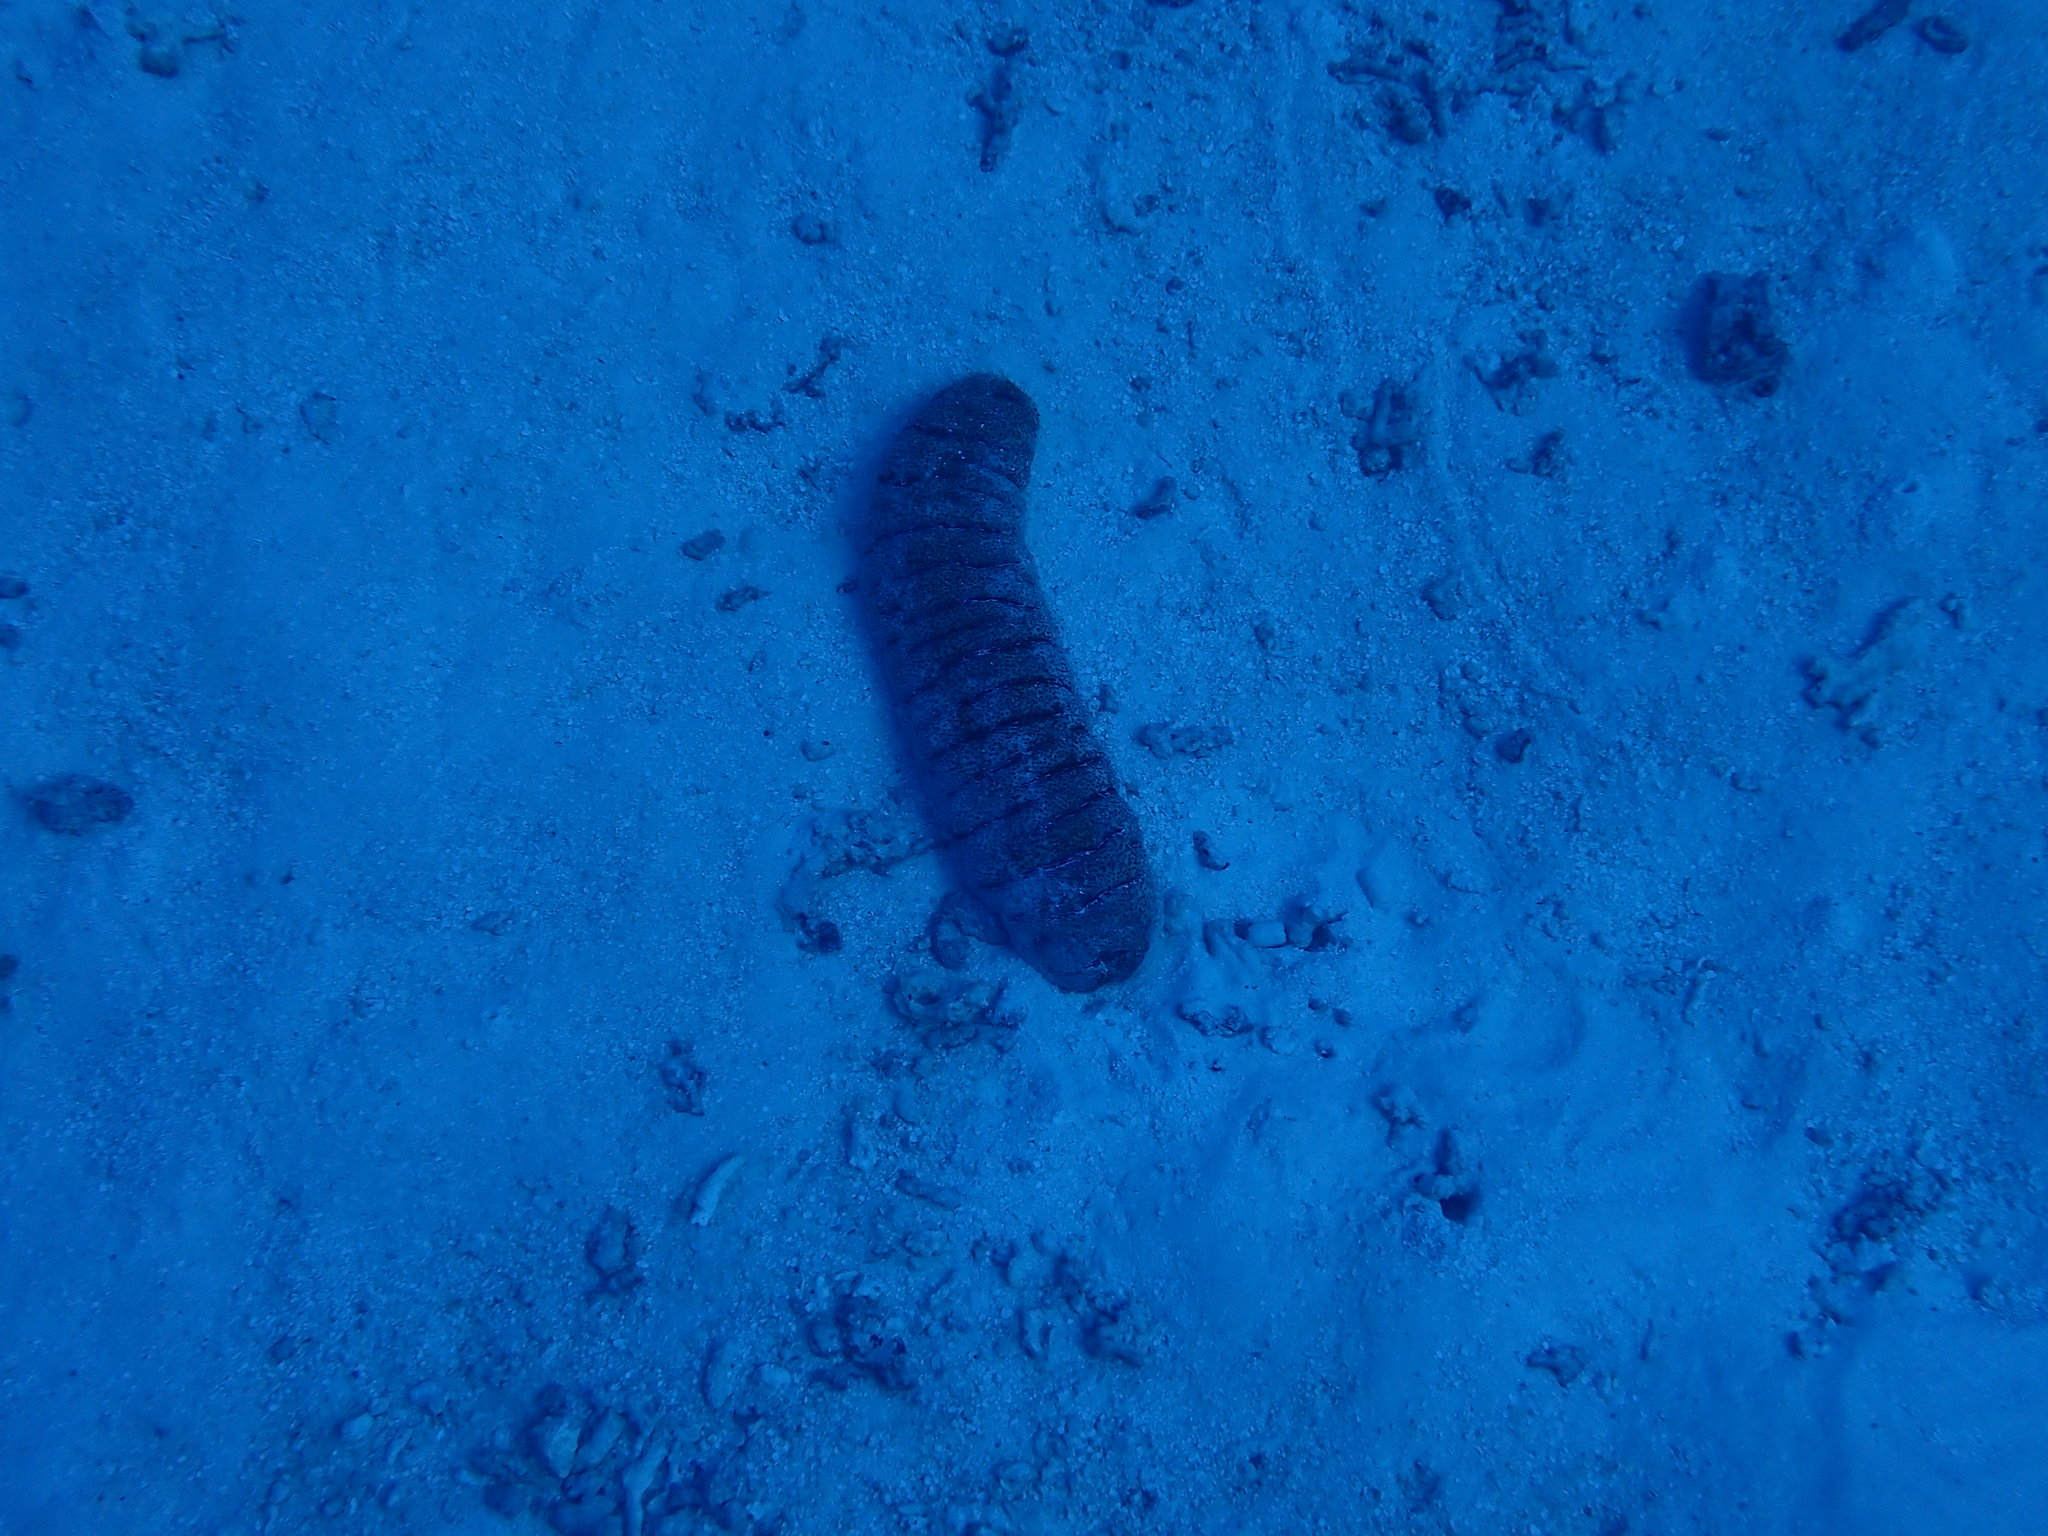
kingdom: Animalia
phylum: Echinodermata
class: Holothuroidea
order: Holothuriida
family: Holothuriidae
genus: Holothuria
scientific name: Holothuria fuscopunctata
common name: Elephant trunkfish
